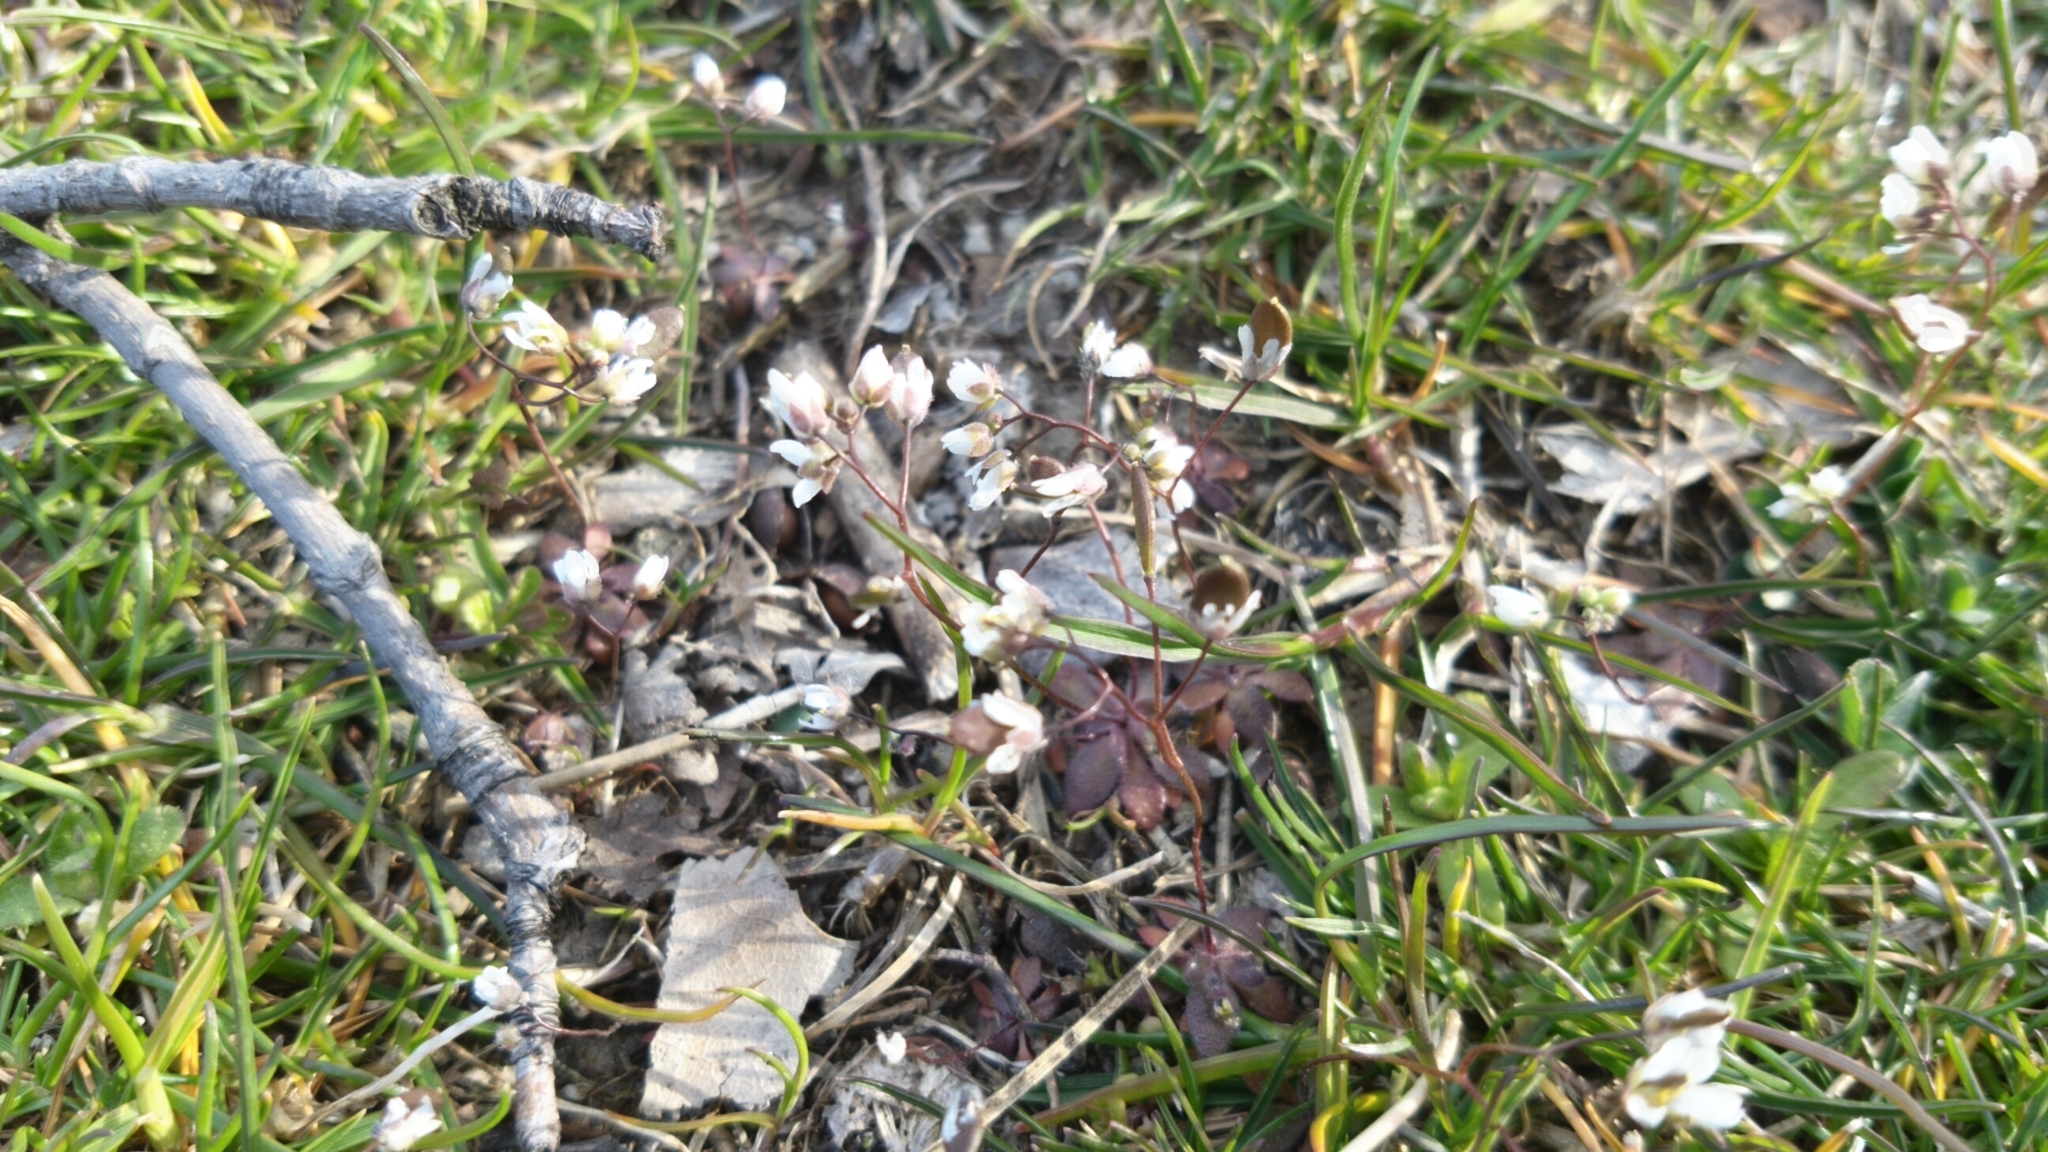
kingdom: Plantae
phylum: Tracheophyta
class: Magnoliopsida
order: Brassicales
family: Brassicaceae
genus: Draba
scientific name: Draba verna
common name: Spring draba
